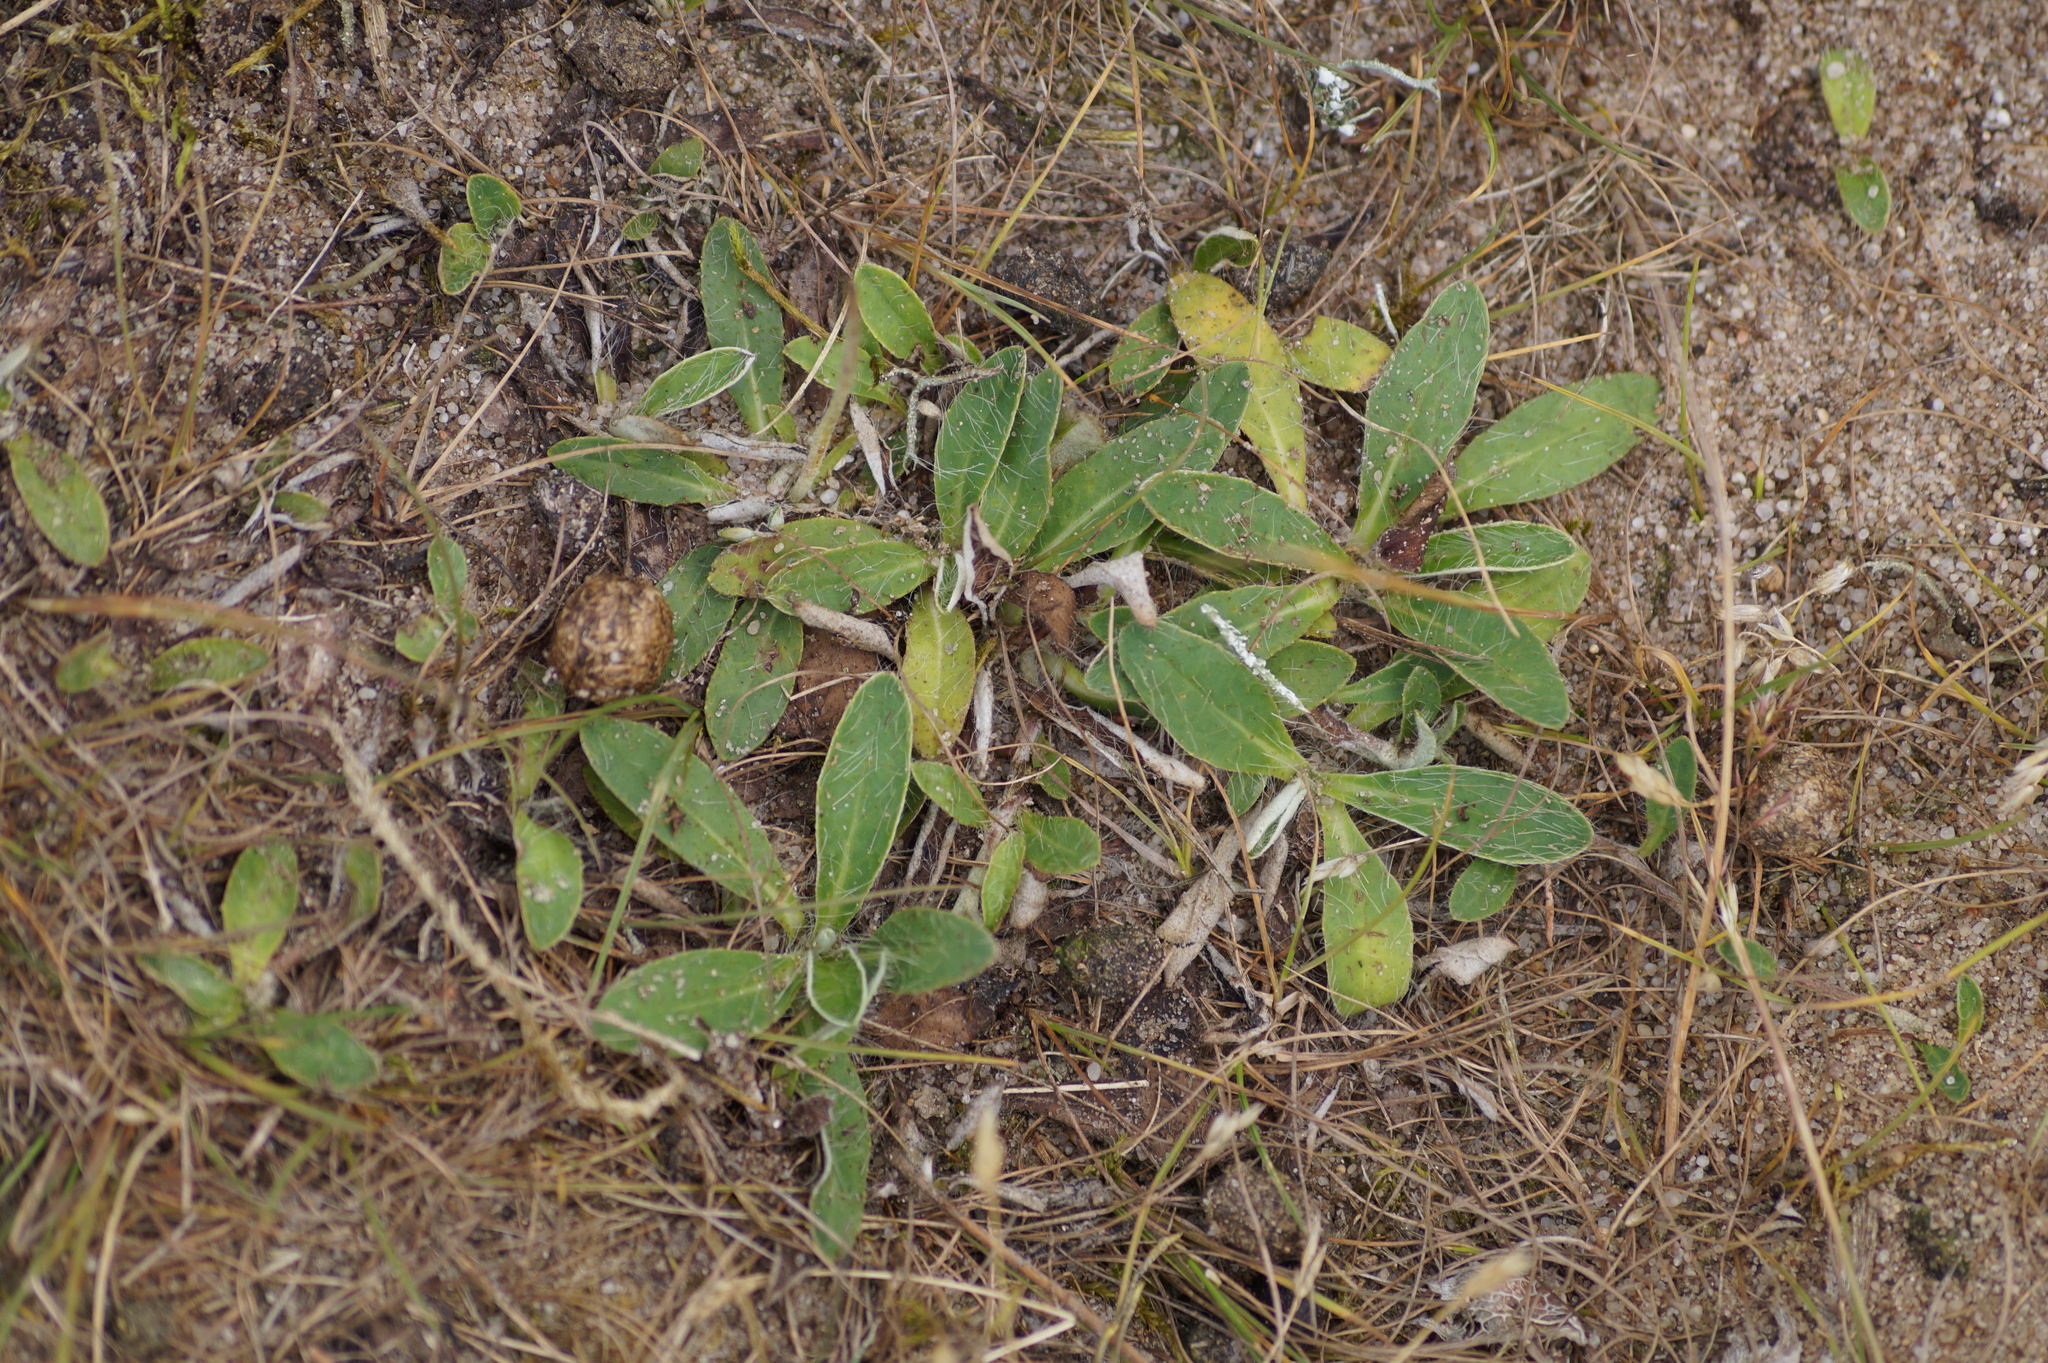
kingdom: Plantae
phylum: Tracheophyta
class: Magnoliopsida
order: Asterales
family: Asteraceae
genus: Pilosella
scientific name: Pilosella officinarum
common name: Mouse-ear hawkweed
